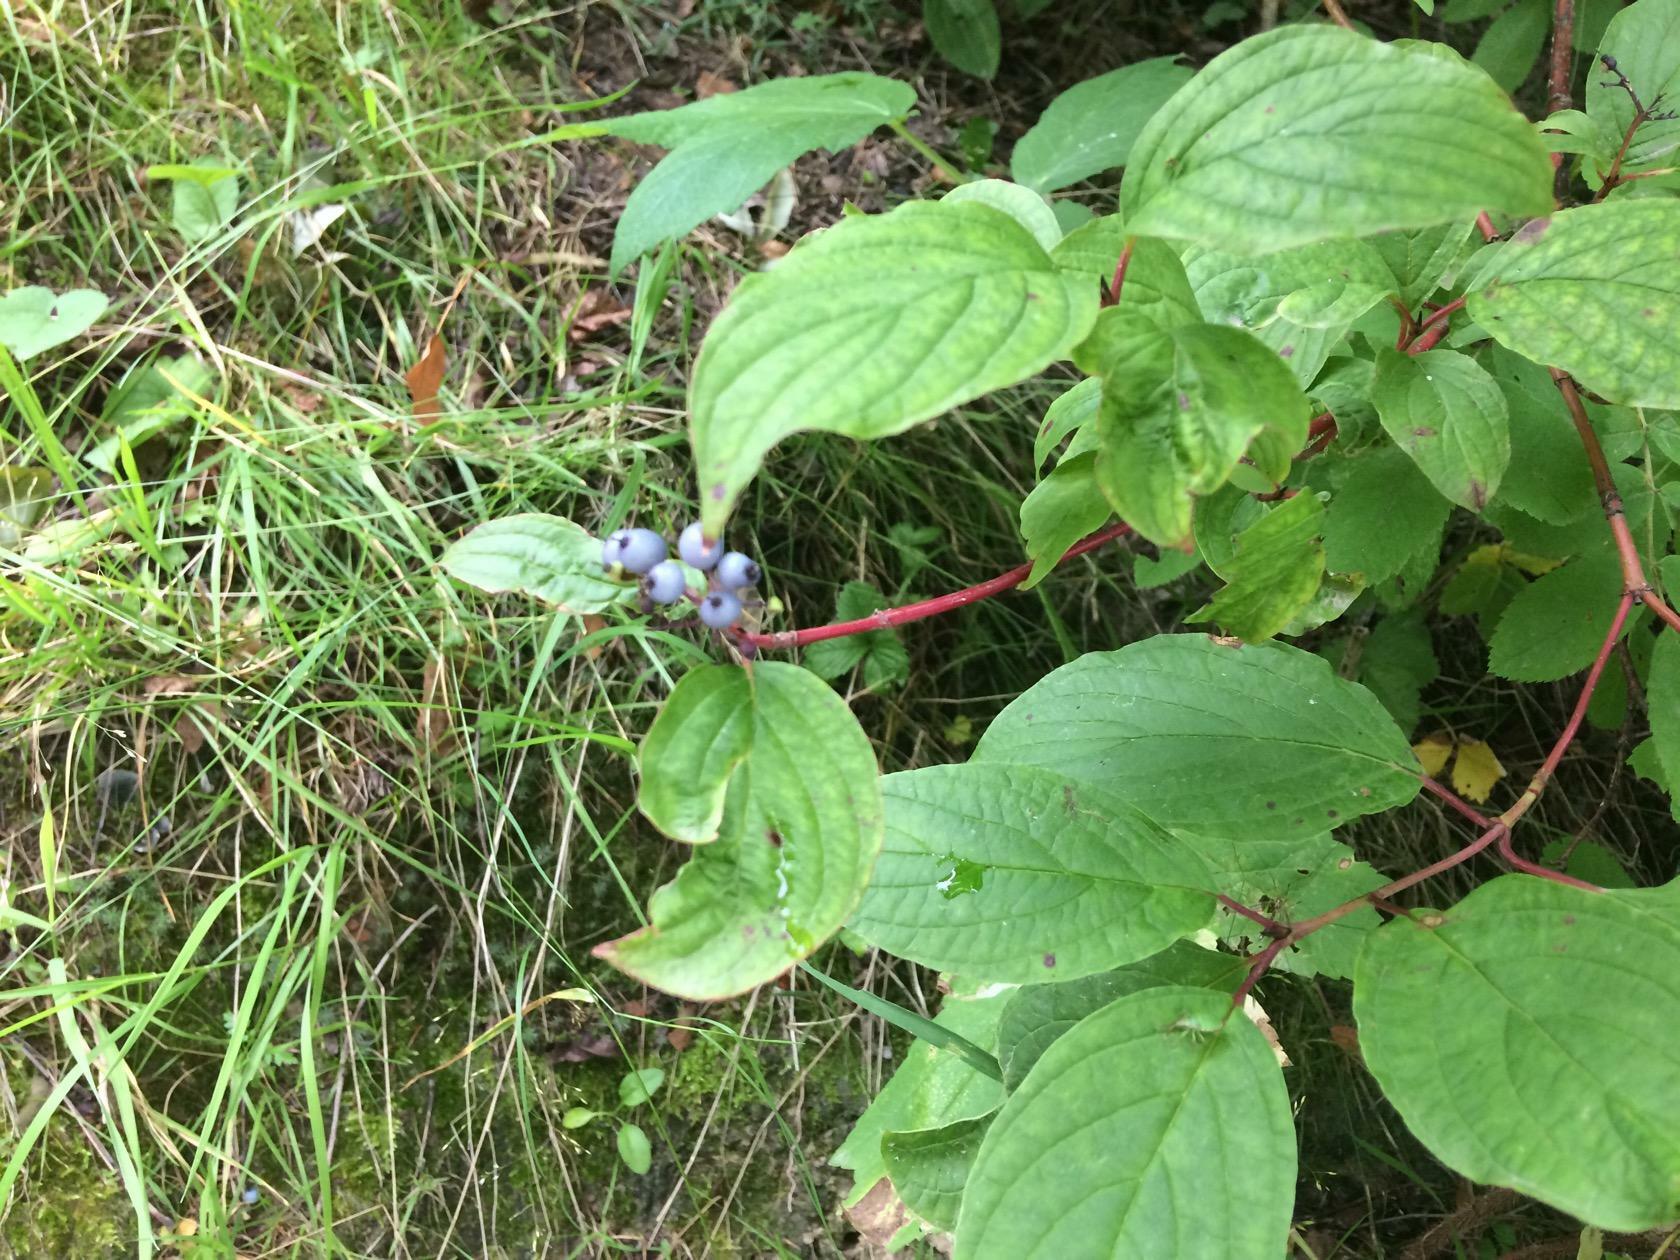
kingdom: Plantae
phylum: Tracheophyta
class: Magnoliopsida
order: Cornales
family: Cornaceae
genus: Cornus
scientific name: Cornus alba
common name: White dogwood
